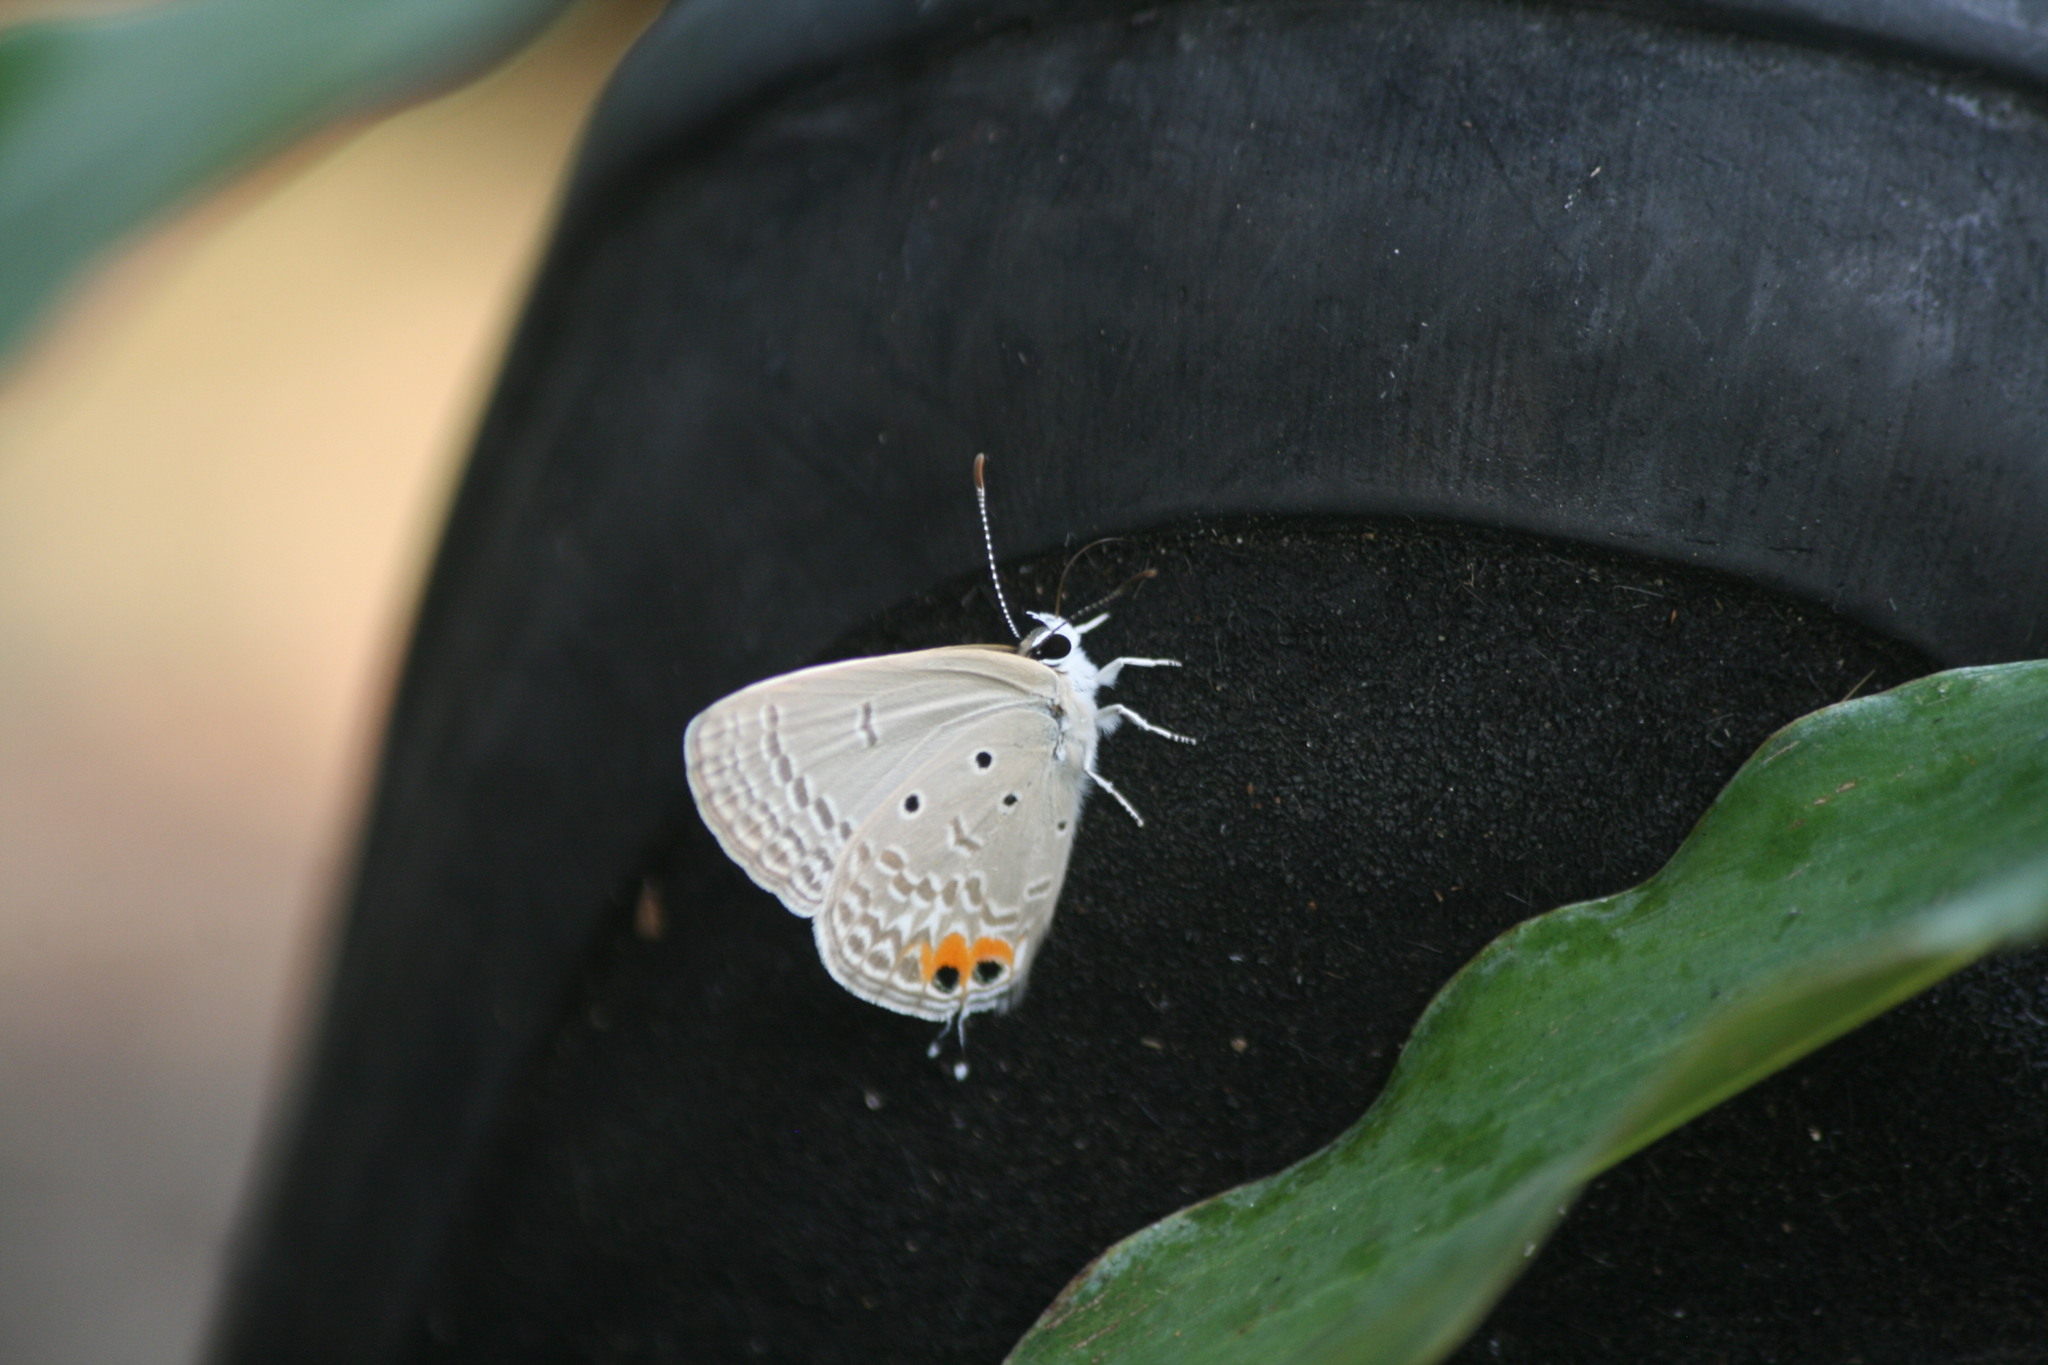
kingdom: Animalia
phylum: Arthropoda
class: Insecta
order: Lepidoptera
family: Lycaenidae
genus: Euchrysops
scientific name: Euchrysops osiris
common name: African blue
